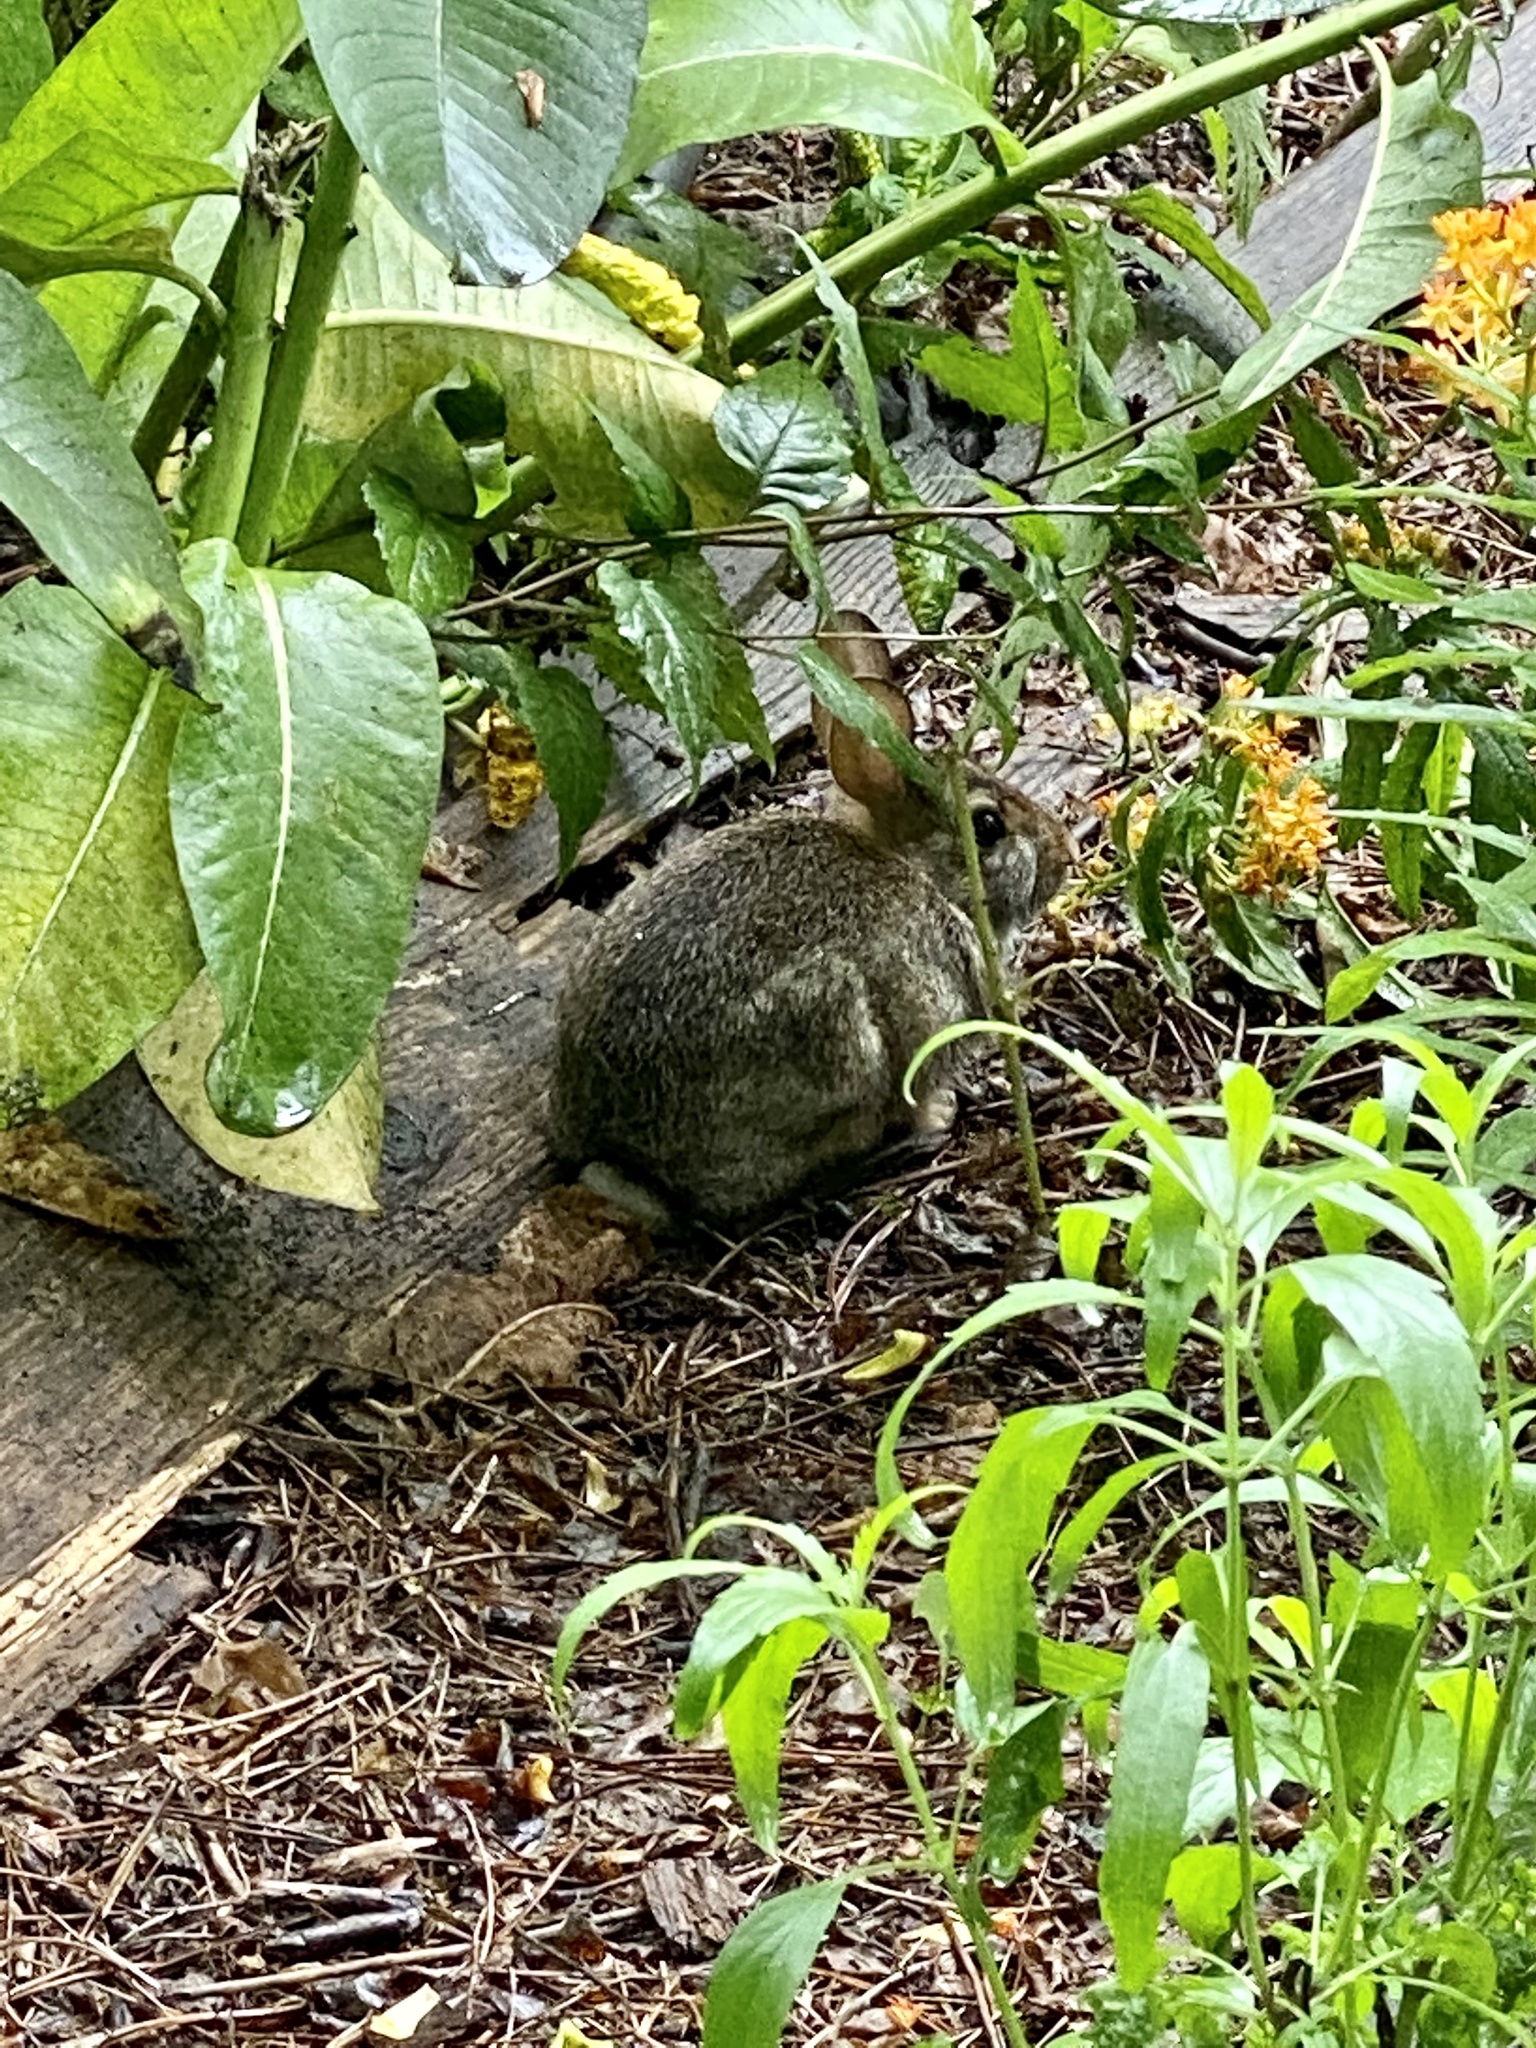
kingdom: Animalia
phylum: Chordata
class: Mammalia
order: Lagomorpha
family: Leporidae
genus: Sylvilagus
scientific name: Sylvilagus floridanus
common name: Eastern cottontail
